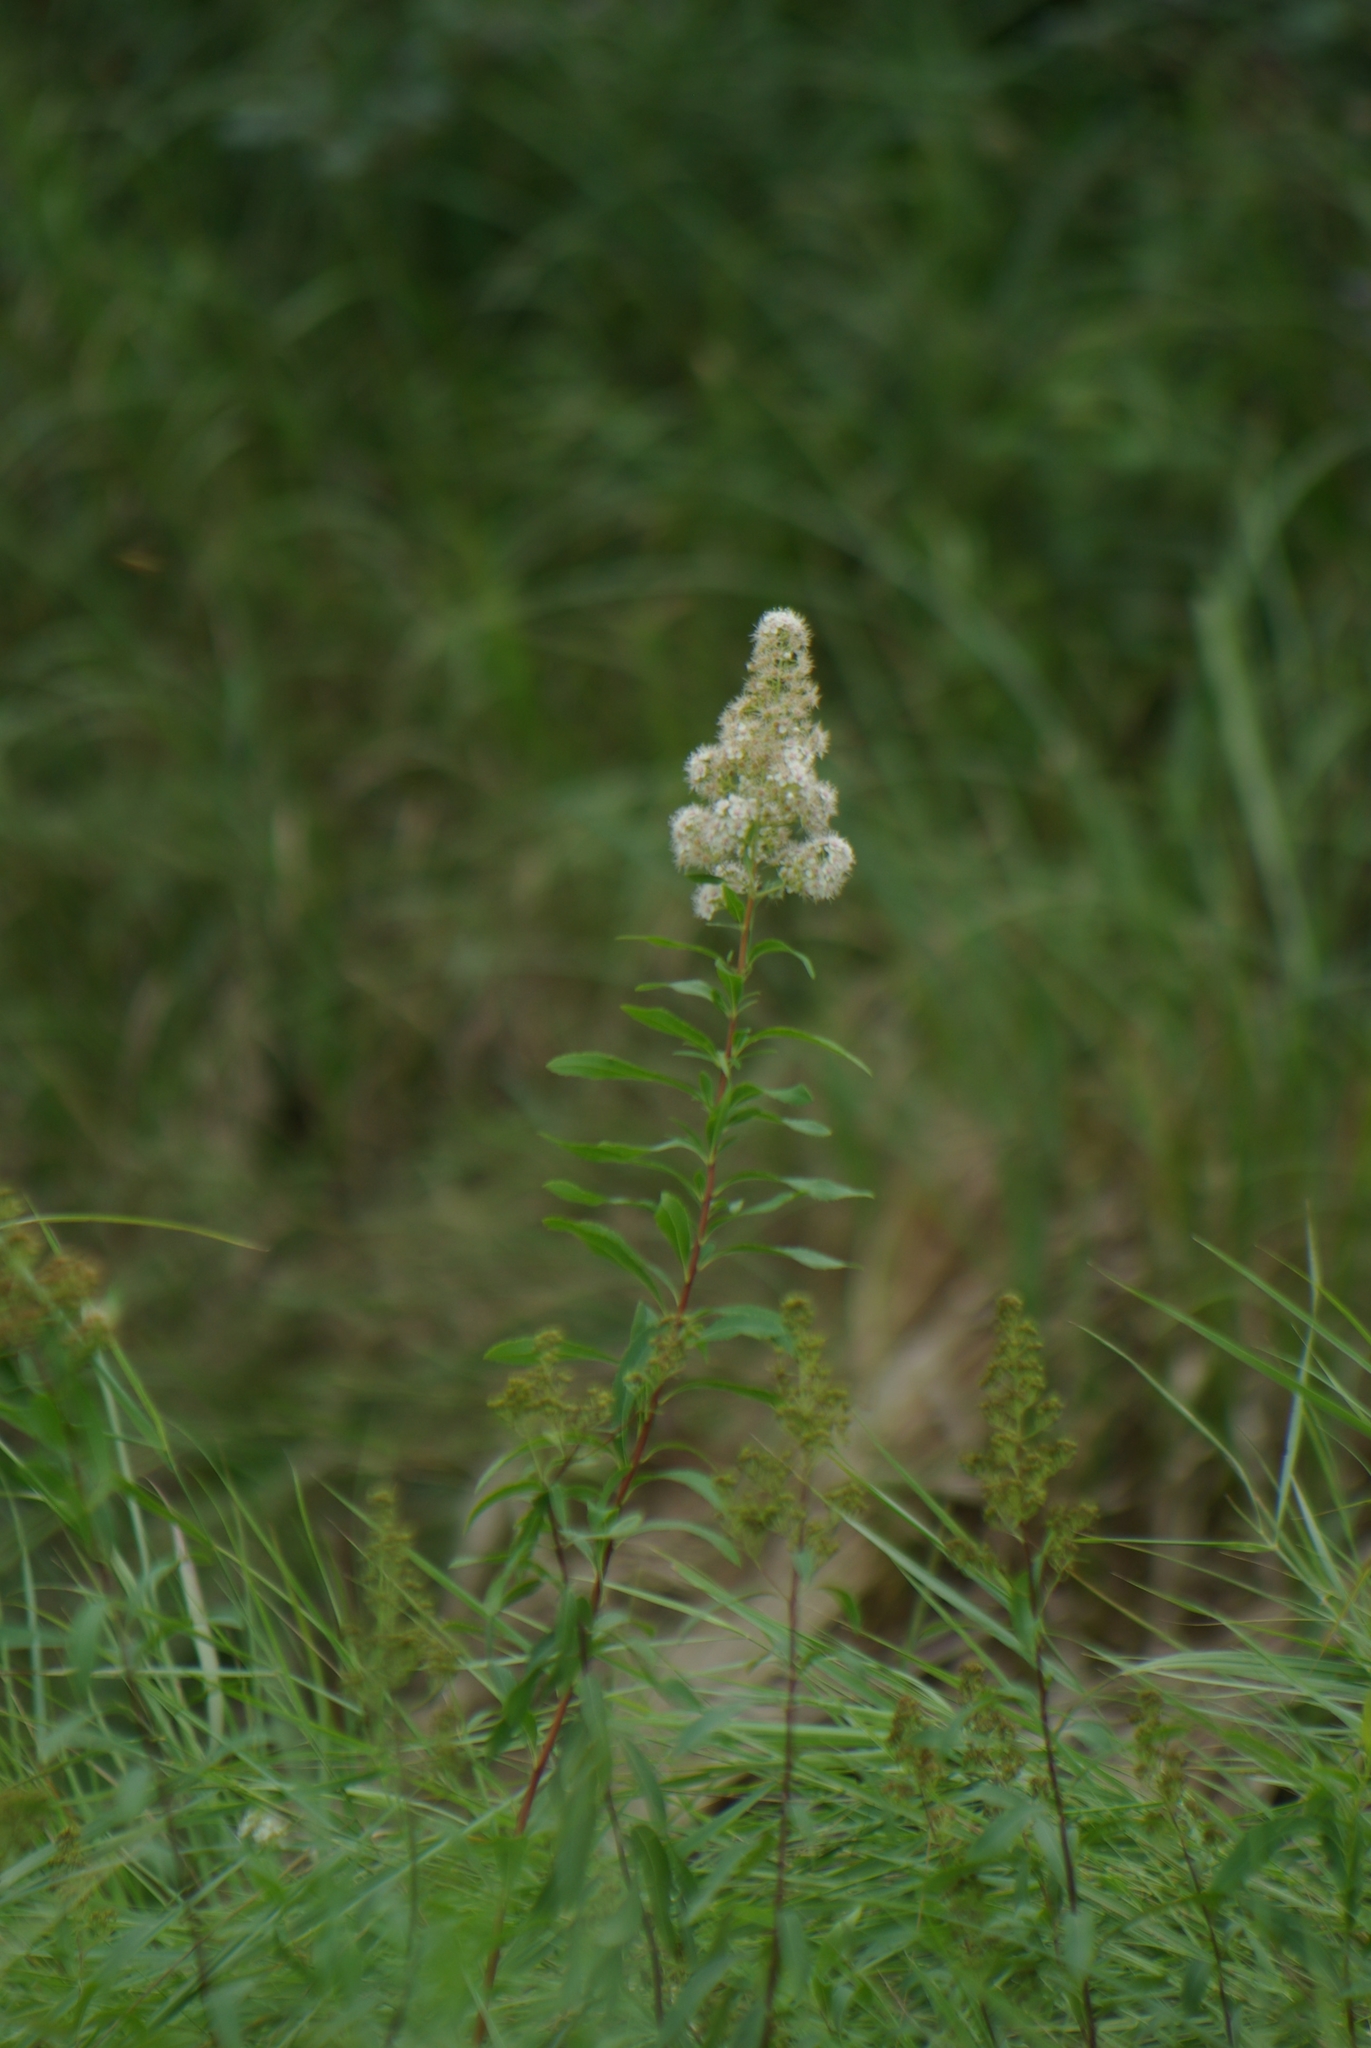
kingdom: Plantae
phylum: Tracheophyta
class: Magnoliopsida
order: Rosales
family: Rosaceae
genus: Spiraea
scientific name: Spiraea alba
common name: Pale bridewort
